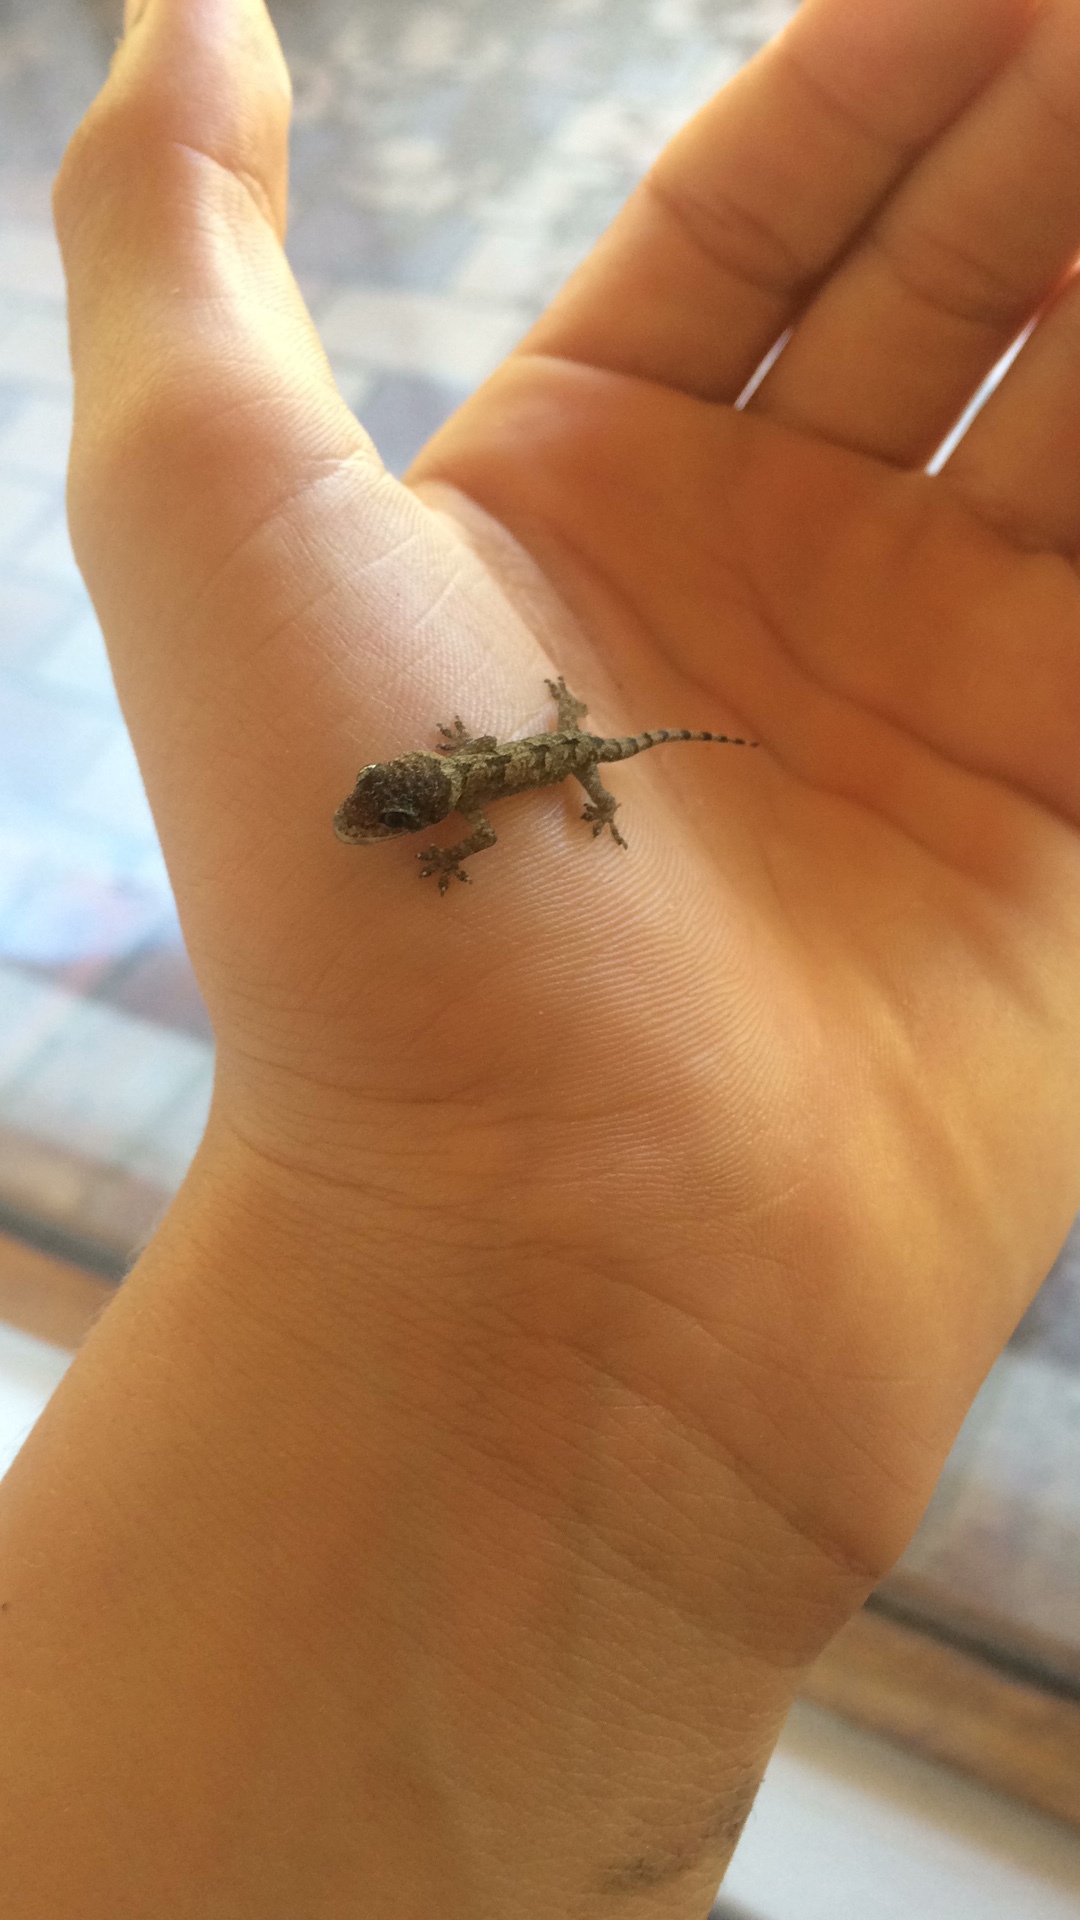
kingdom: Animalia
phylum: Chordata
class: Squamata
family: Gekkonidae
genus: Hemidactylus
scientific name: Hemidactylus mabouia
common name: House gecko
